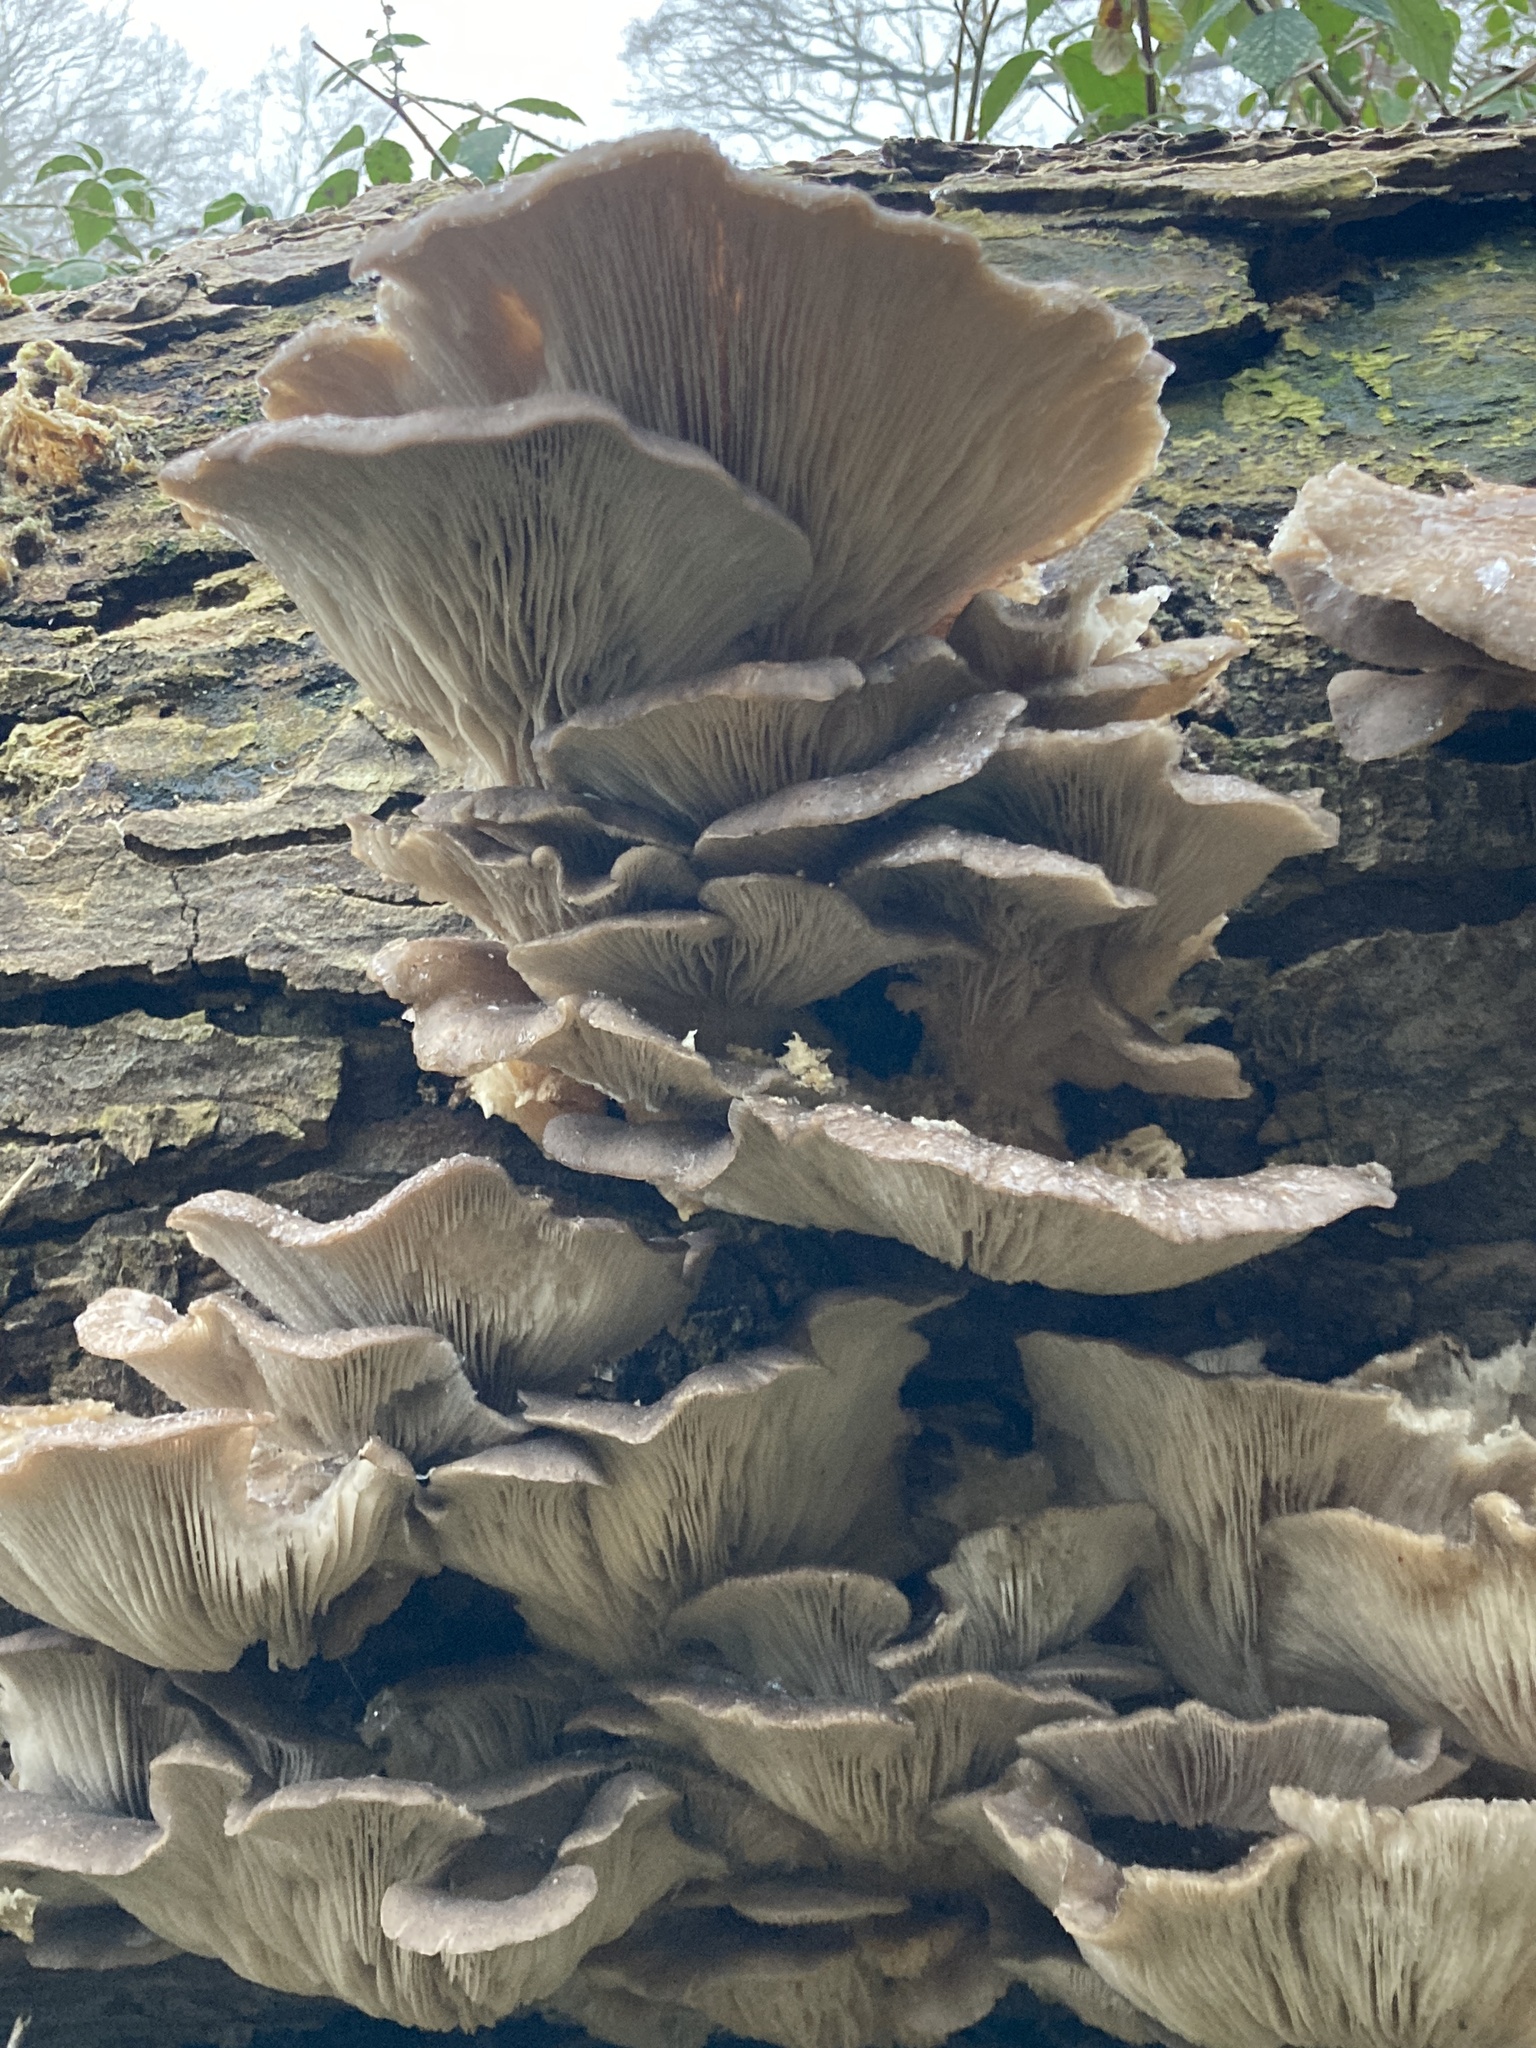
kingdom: Fungi
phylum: Basidiomycota
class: Agaricomycetes
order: Agaricales
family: Pleurotaceae
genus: Pleurotus
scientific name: Pleurotus ostreatus
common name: Oyster mushroom
